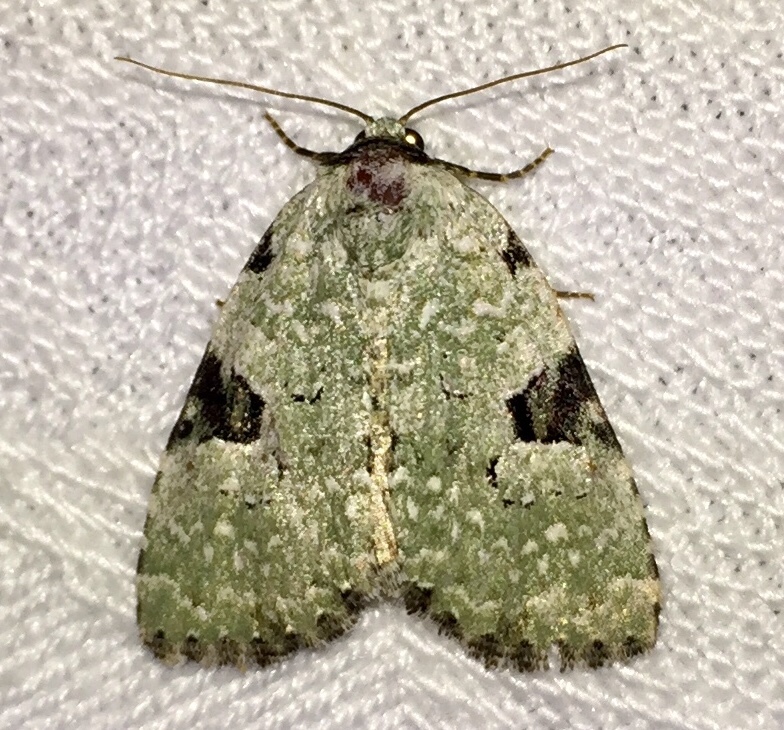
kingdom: Animalia
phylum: Arthropoda
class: Insecta
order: Lepidoptera
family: Noctuidae
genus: Leuconycta
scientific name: Leuconycta diphteroides
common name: Green leuconycta moth
